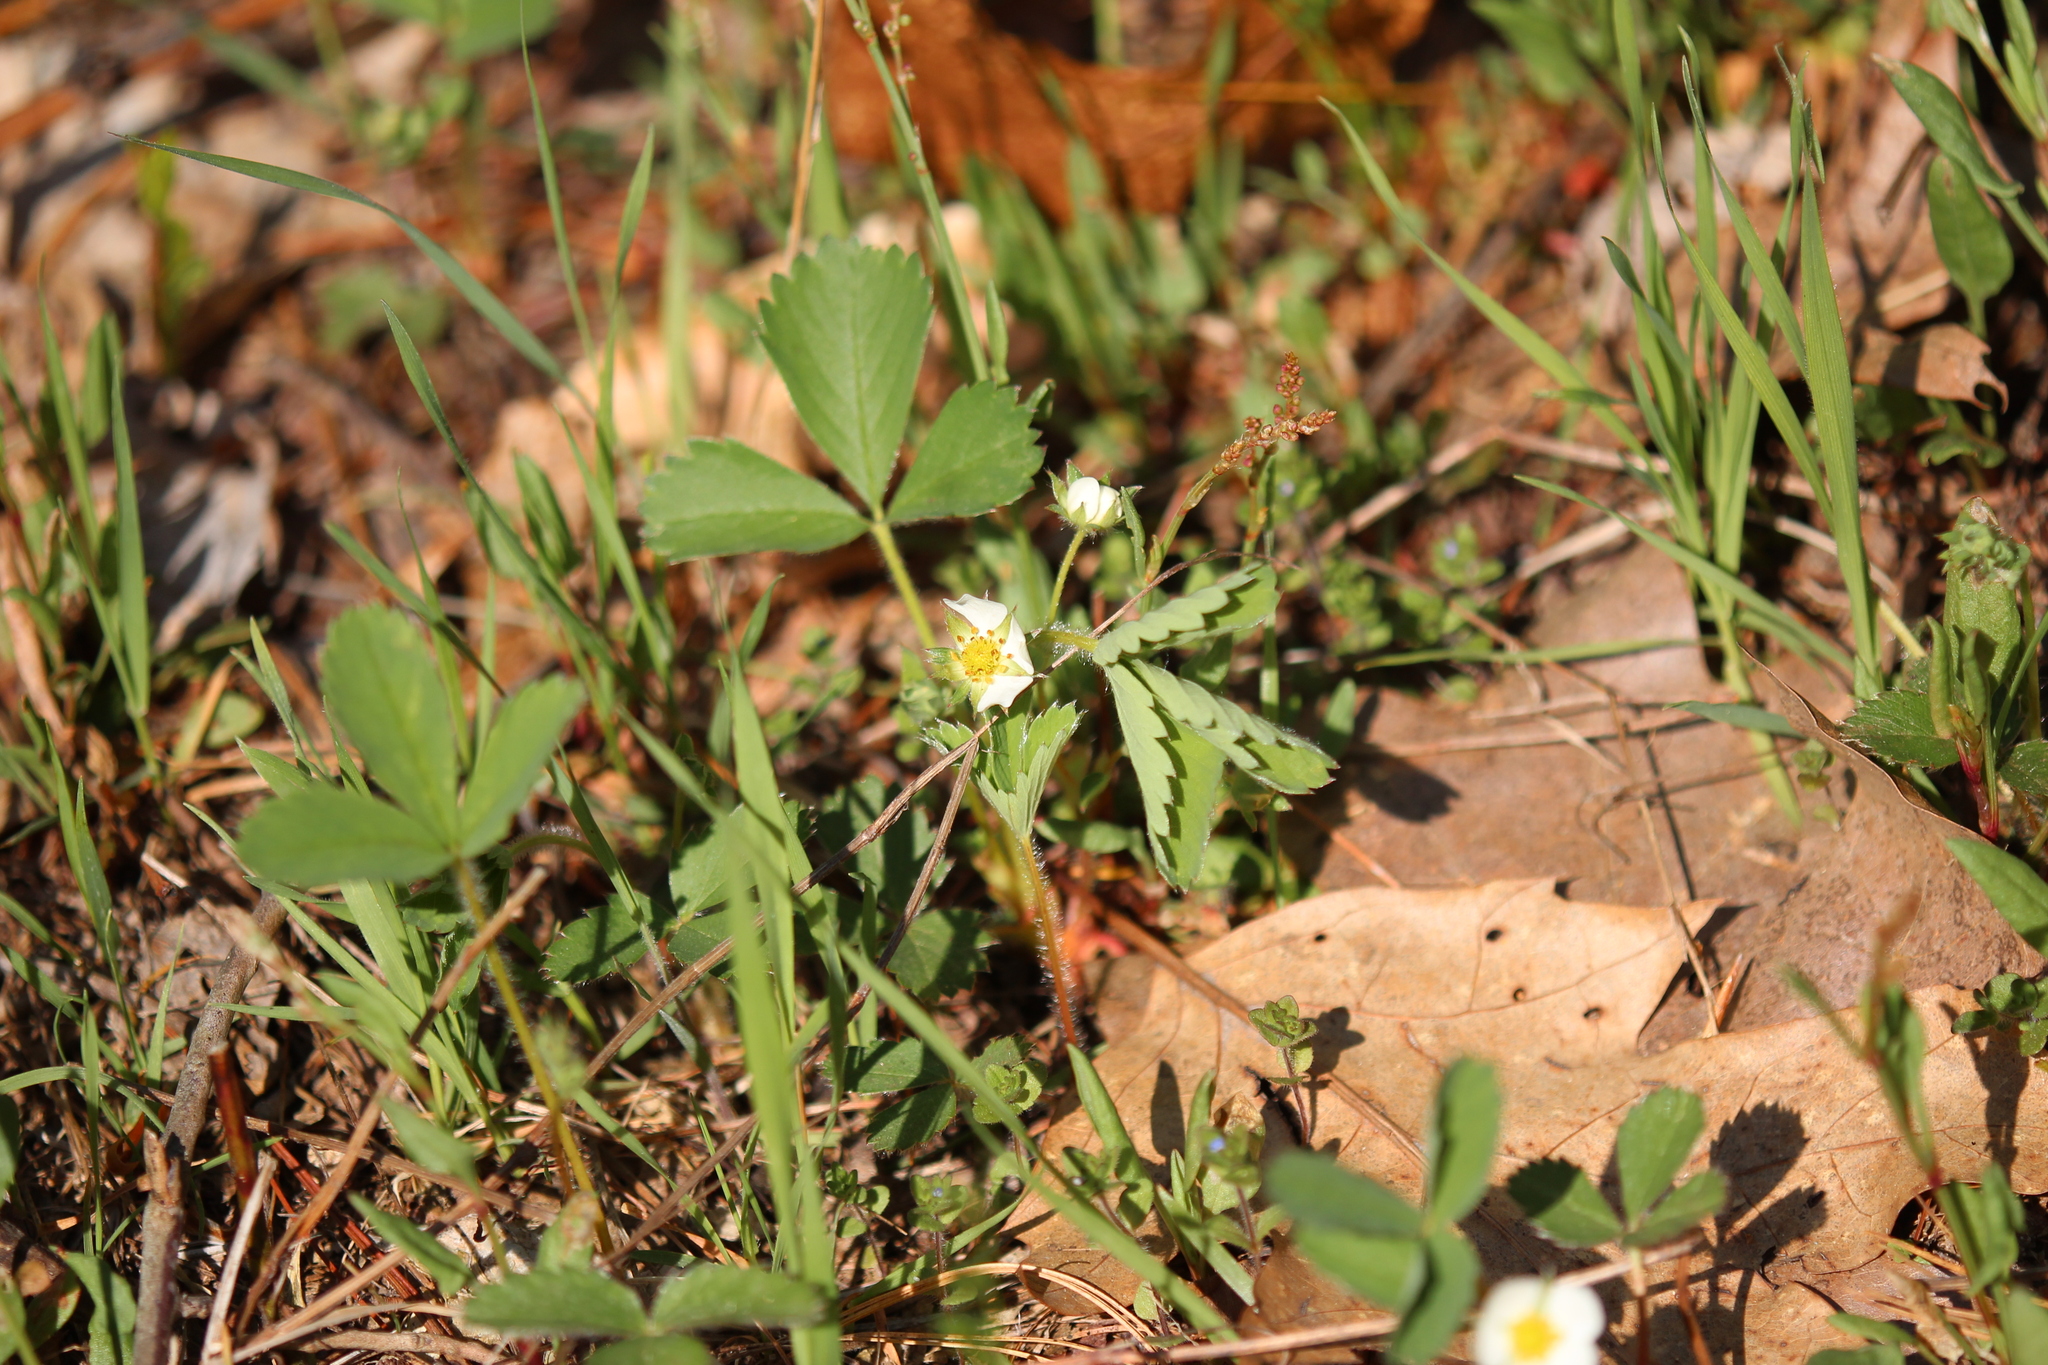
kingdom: Plantae
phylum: Tracheophyta
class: Magnoliopsida
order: Rosales
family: Rosaceae
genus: Fragaria
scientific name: Fragaria virginiana
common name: Thickleaved wild strawberry
